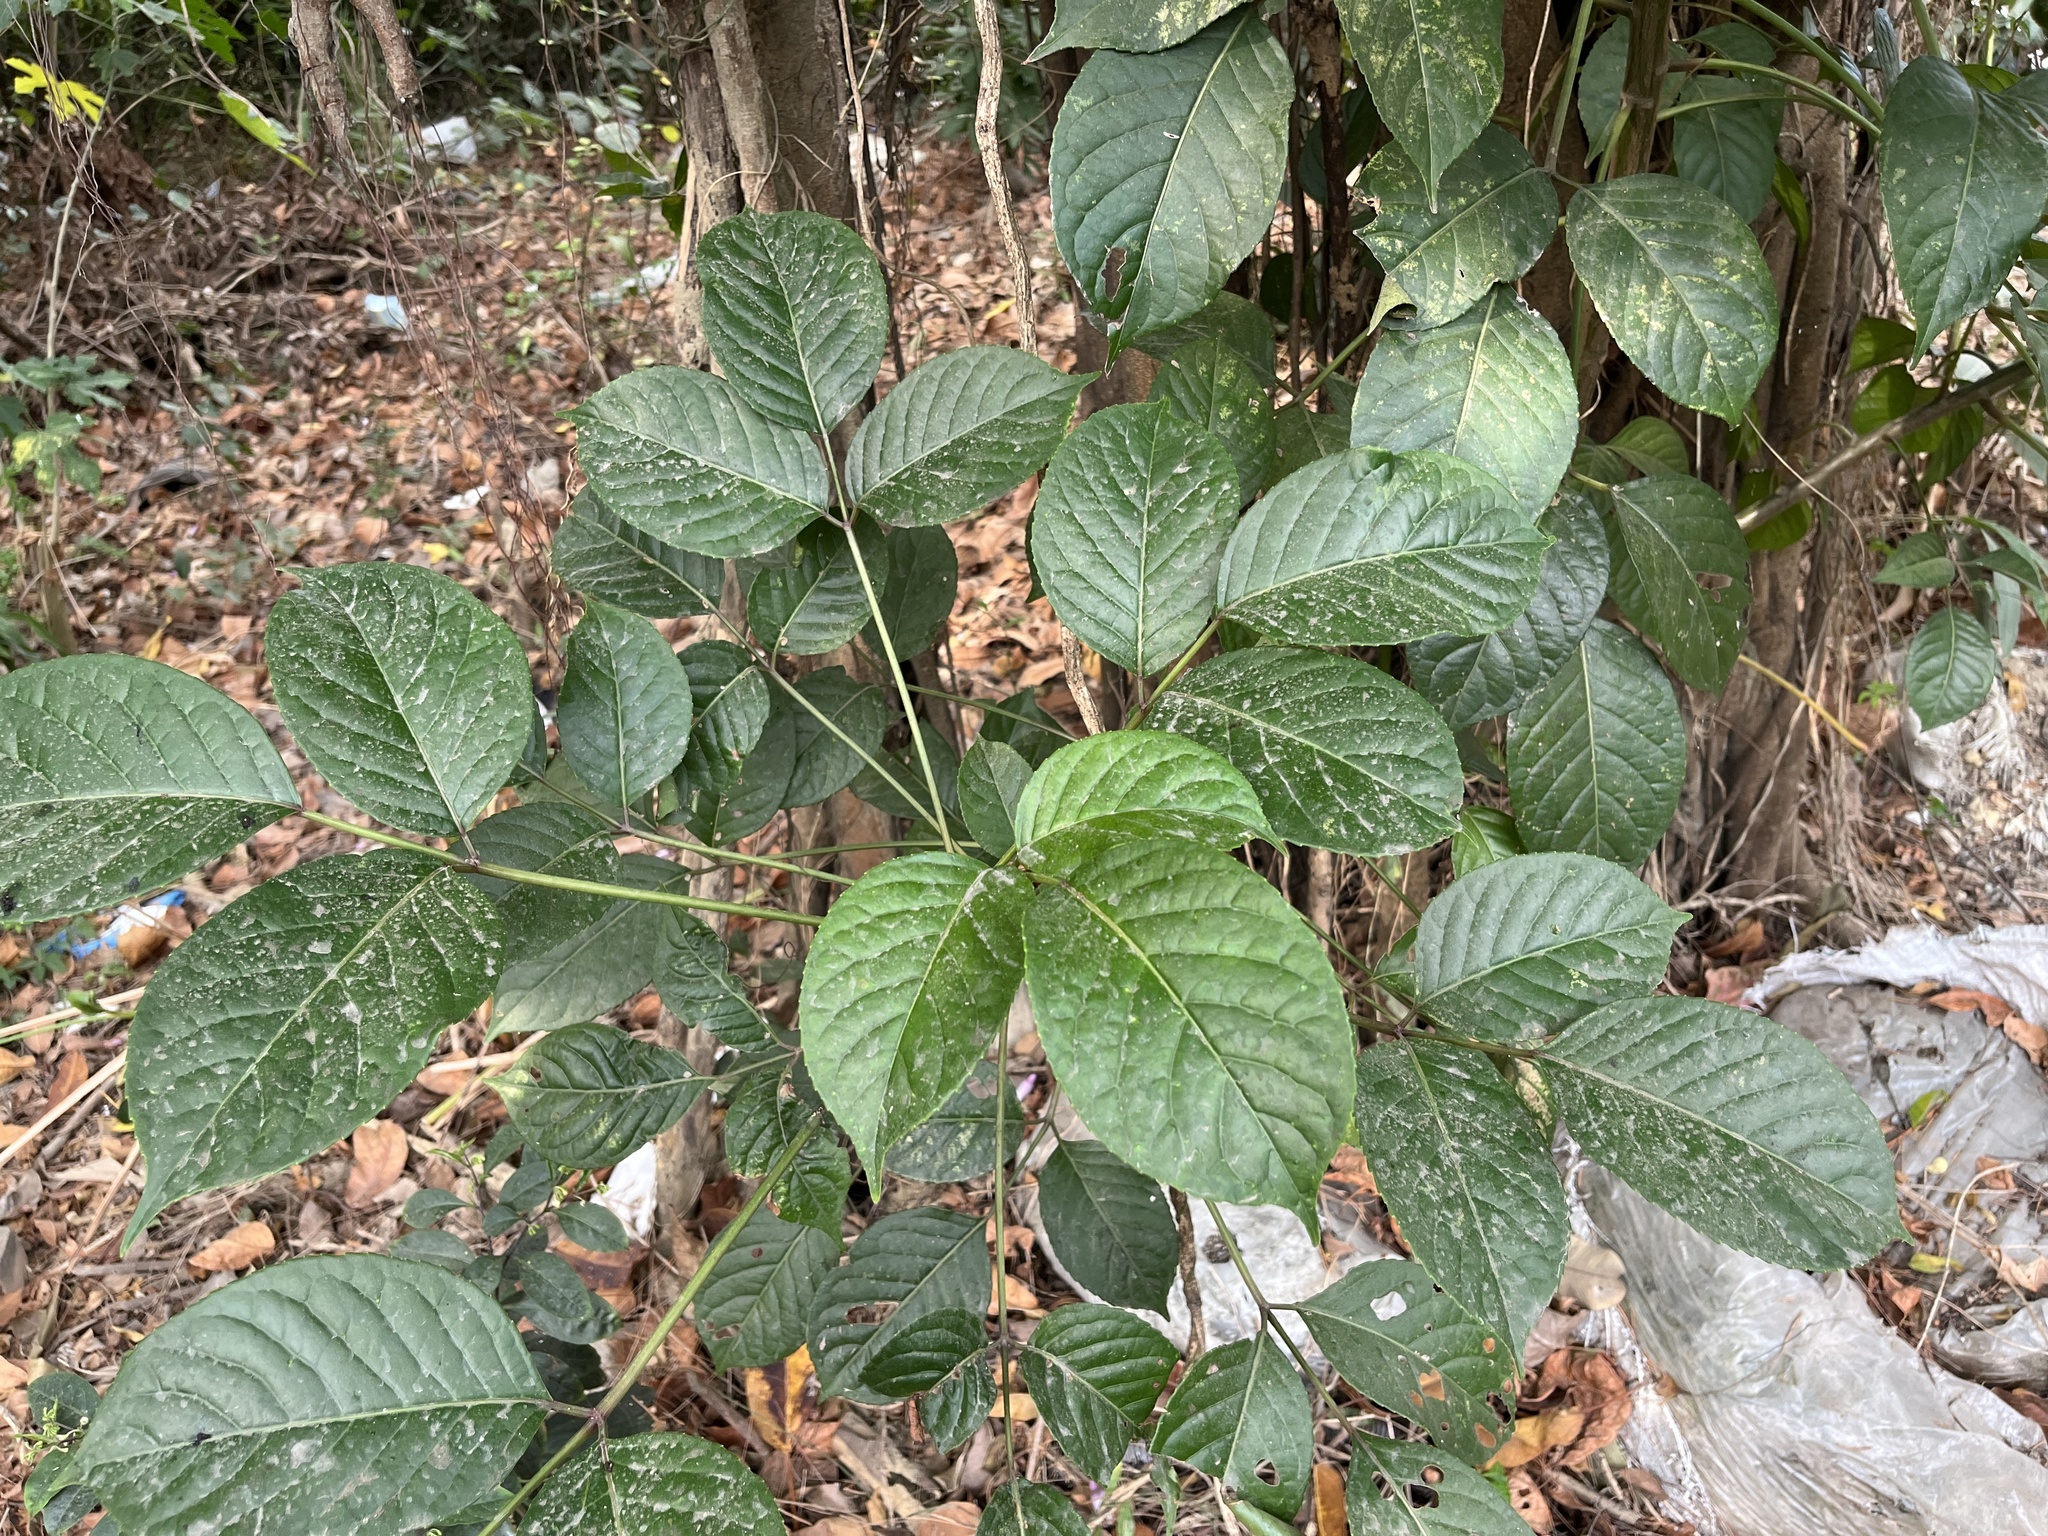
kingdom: Plantae
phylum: Tracheophyta
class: Magnoliopsida
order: Malpighiales
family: Phyllanthaceae
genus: Bischofia
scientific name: Bischofia javanica
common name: Javanese bishopwood
